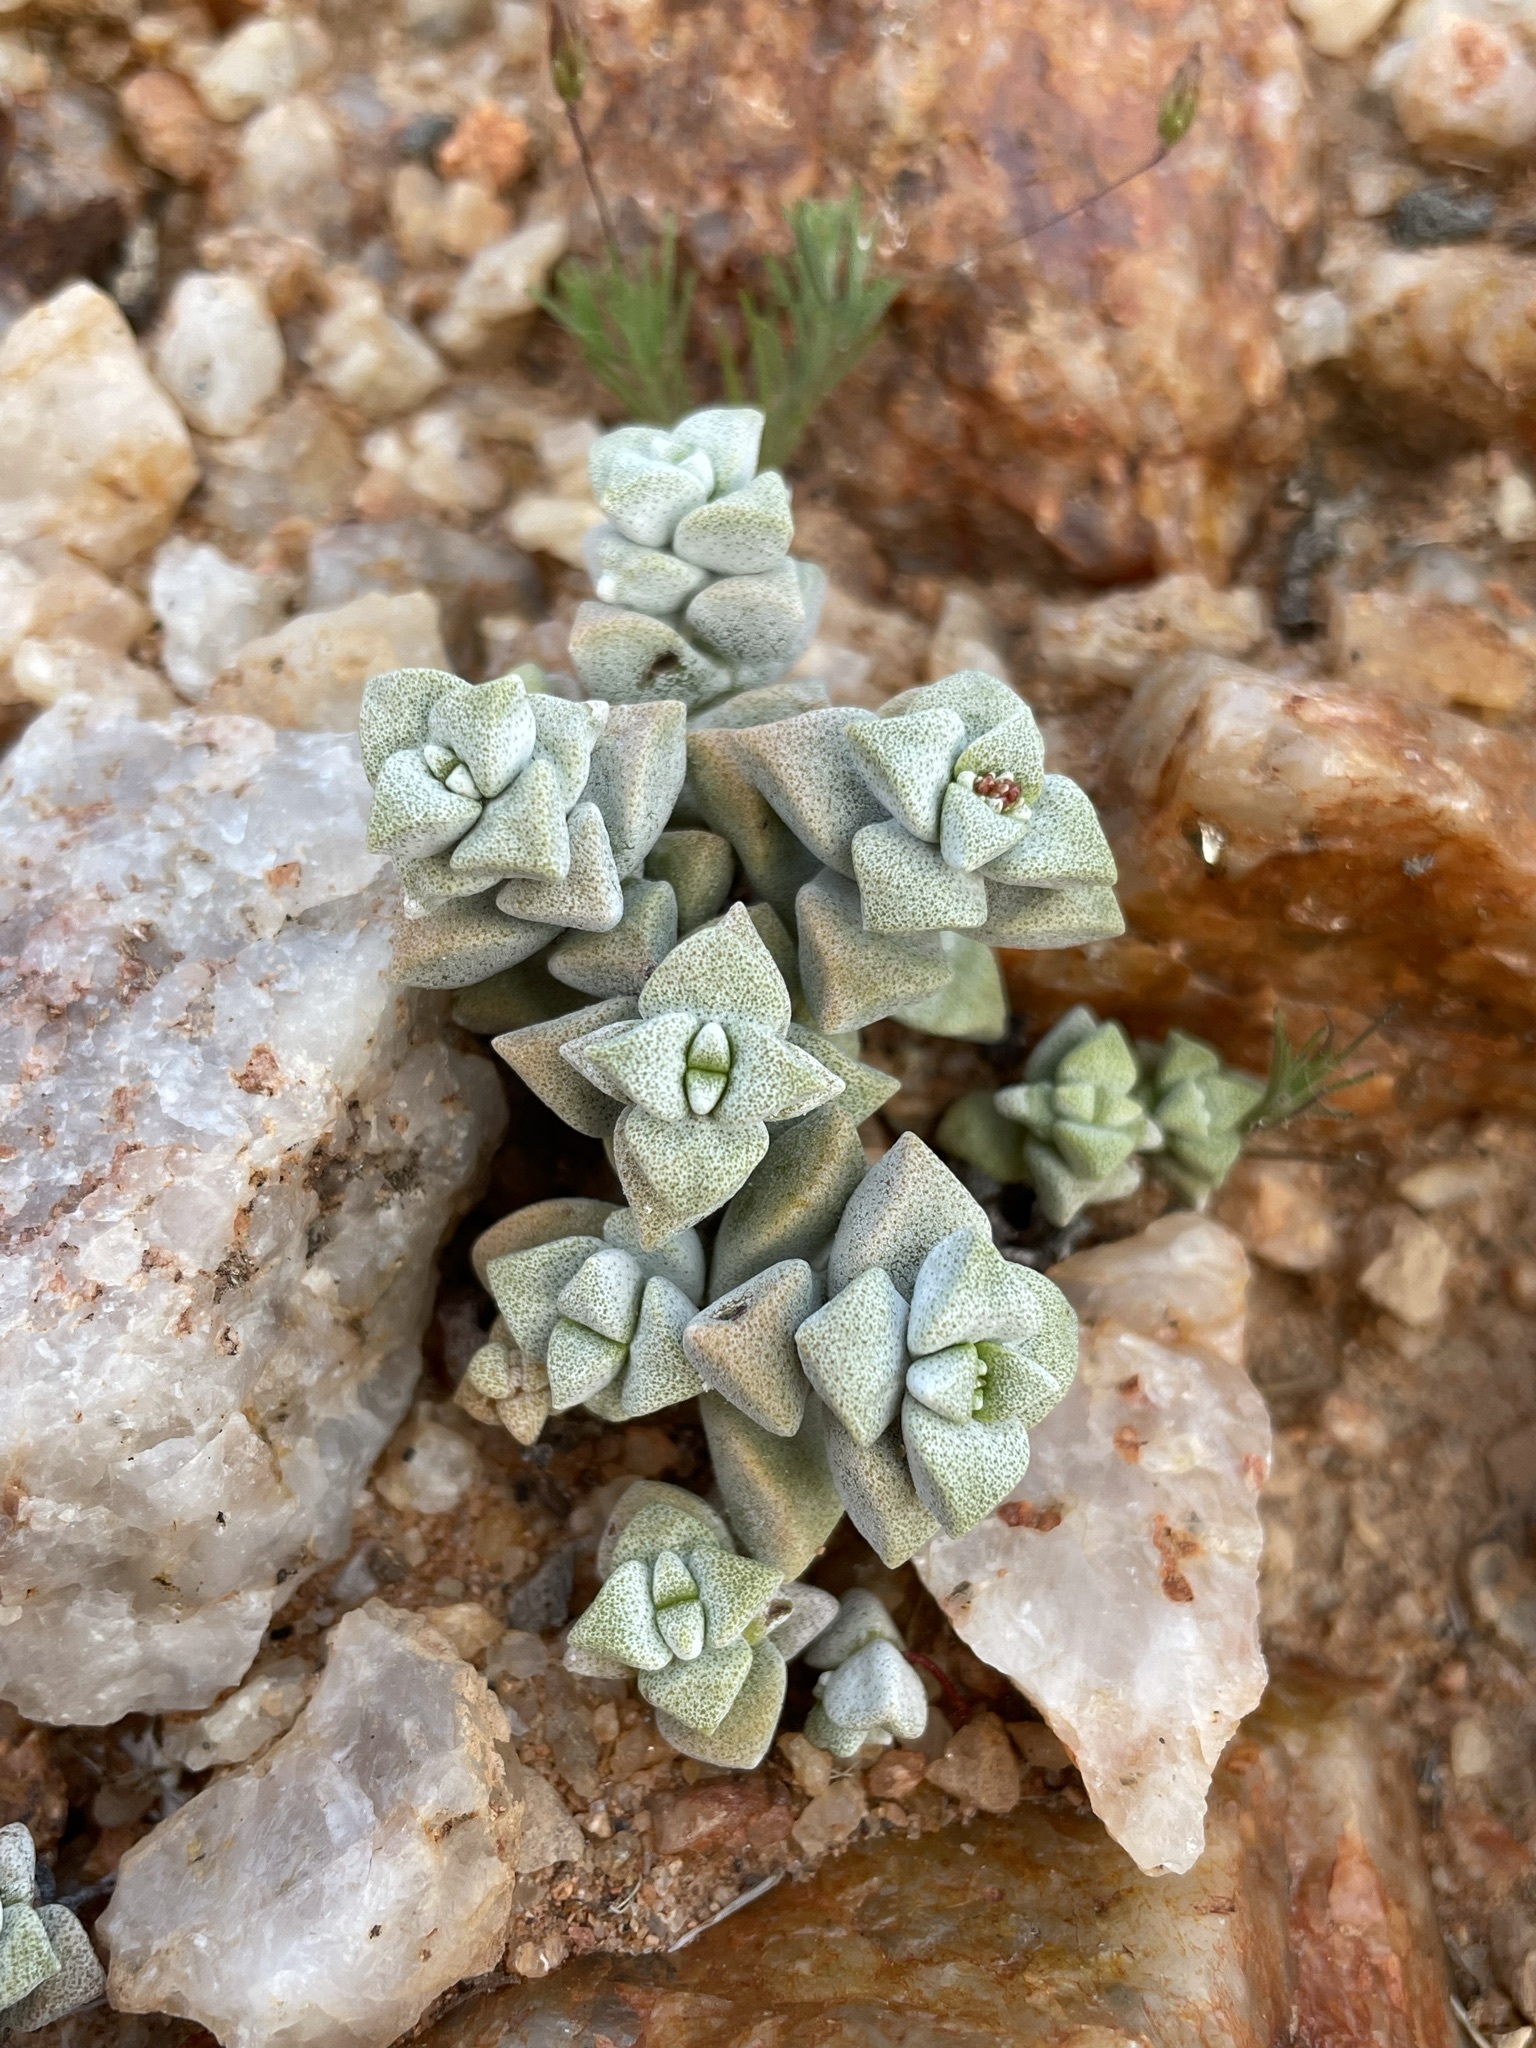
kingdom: Plantae
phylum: Tracheophyta
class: Magnoliopsida
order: Saxifragales
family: Crassulaceae
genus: Crassula
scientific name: Crassula deltoidea
